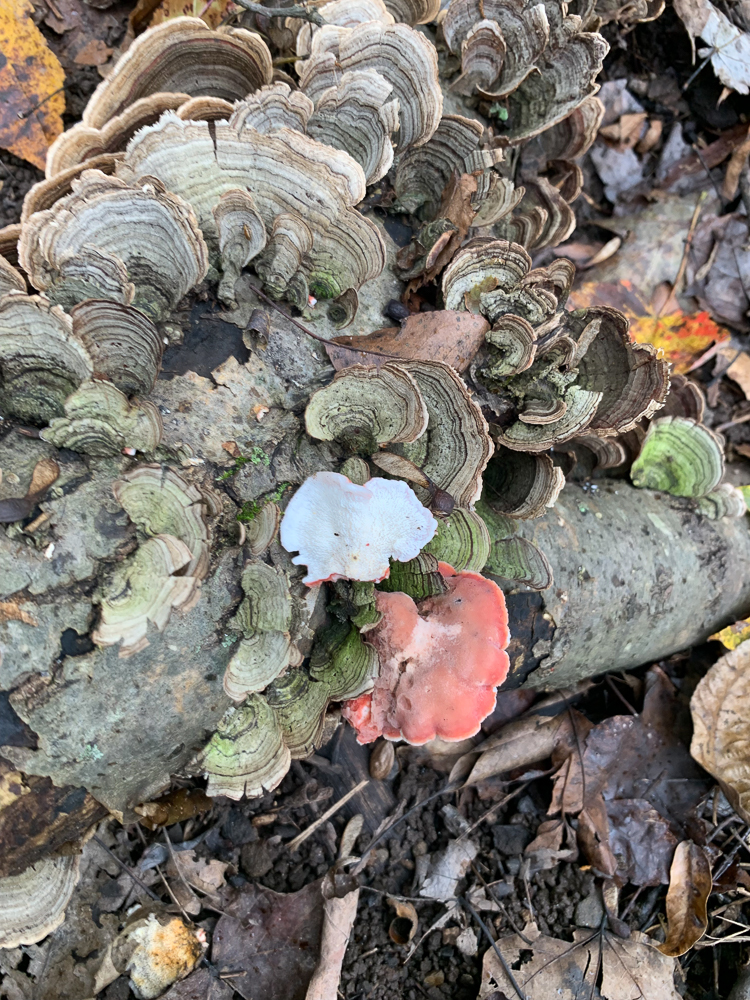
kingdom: Fungi
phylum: Basidiomycota
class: Agaricomycetes
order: Polyporales
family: Irpicaceae
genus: Byssomerulius
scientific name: Byssomerulius incarnatus
